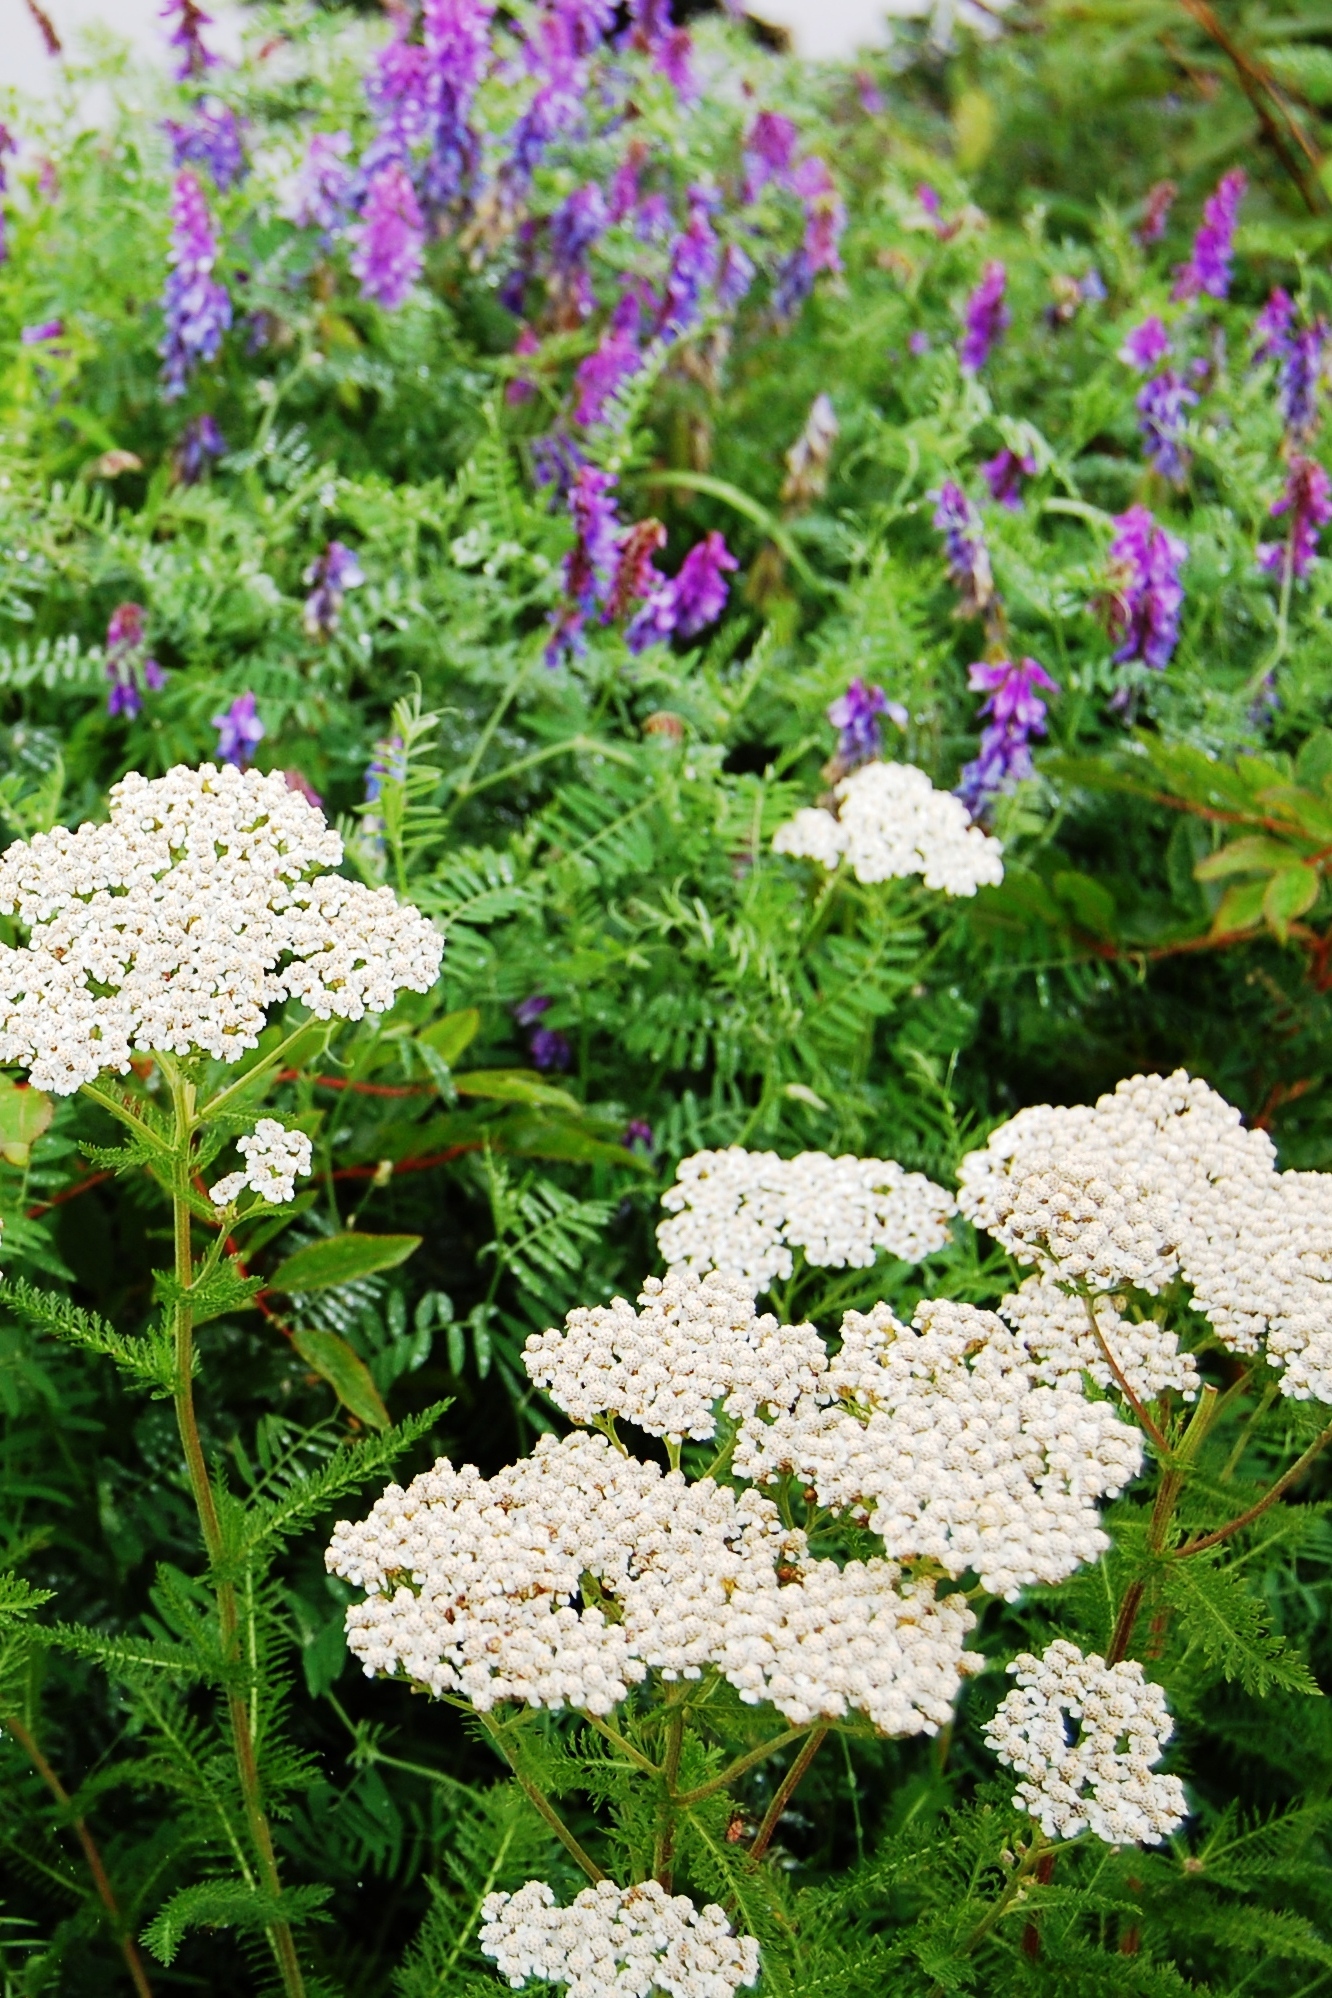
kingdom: Plantae
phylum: Tracheophyta
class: Magnoliopsida
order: Asterales
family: Asteraceae
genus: Achillea
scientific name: Achillea millefolium
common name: Yarrow
